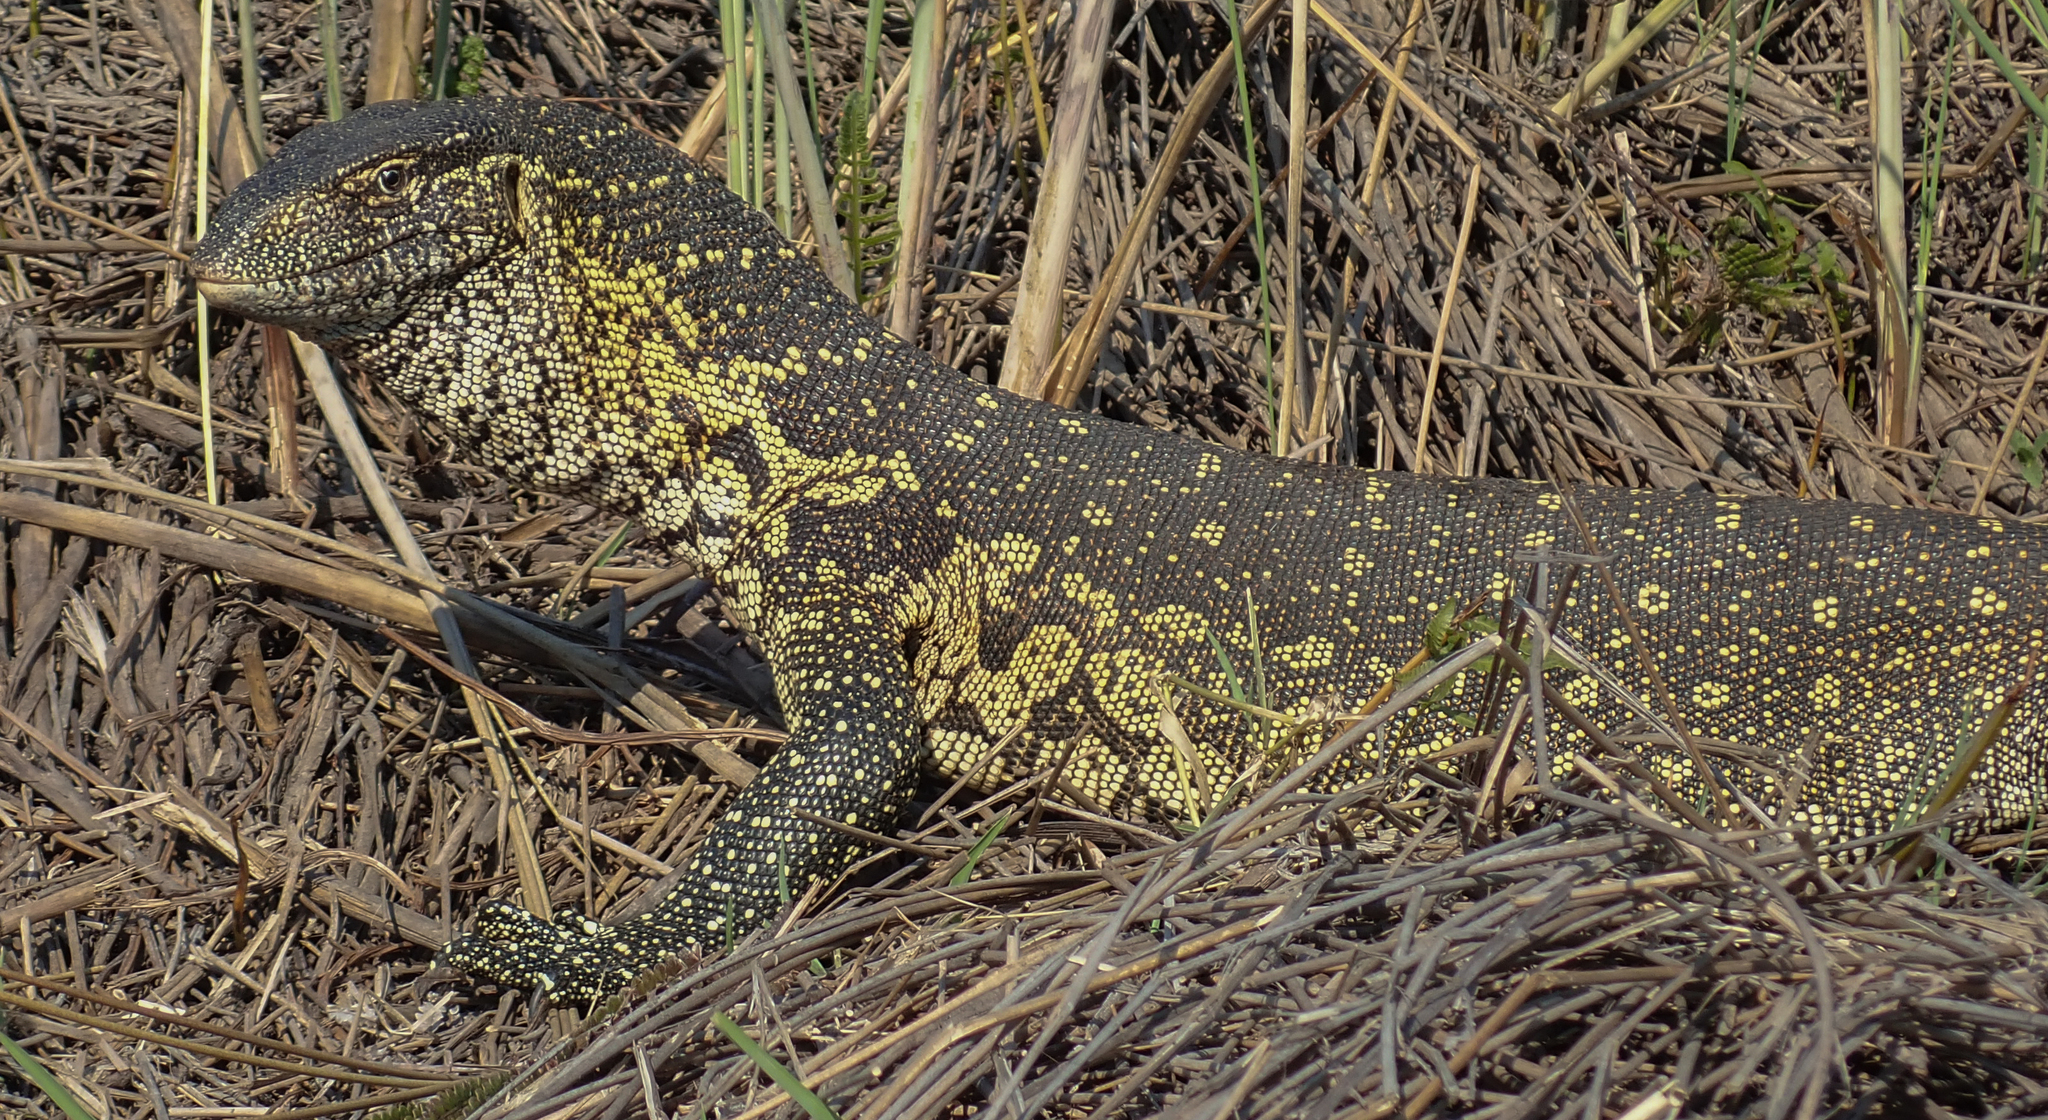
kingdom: Animalia
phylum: Chordata
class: Squamata
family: Varanidae
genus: Varanus
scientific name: Varanus niloticus
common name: Nile monitor
